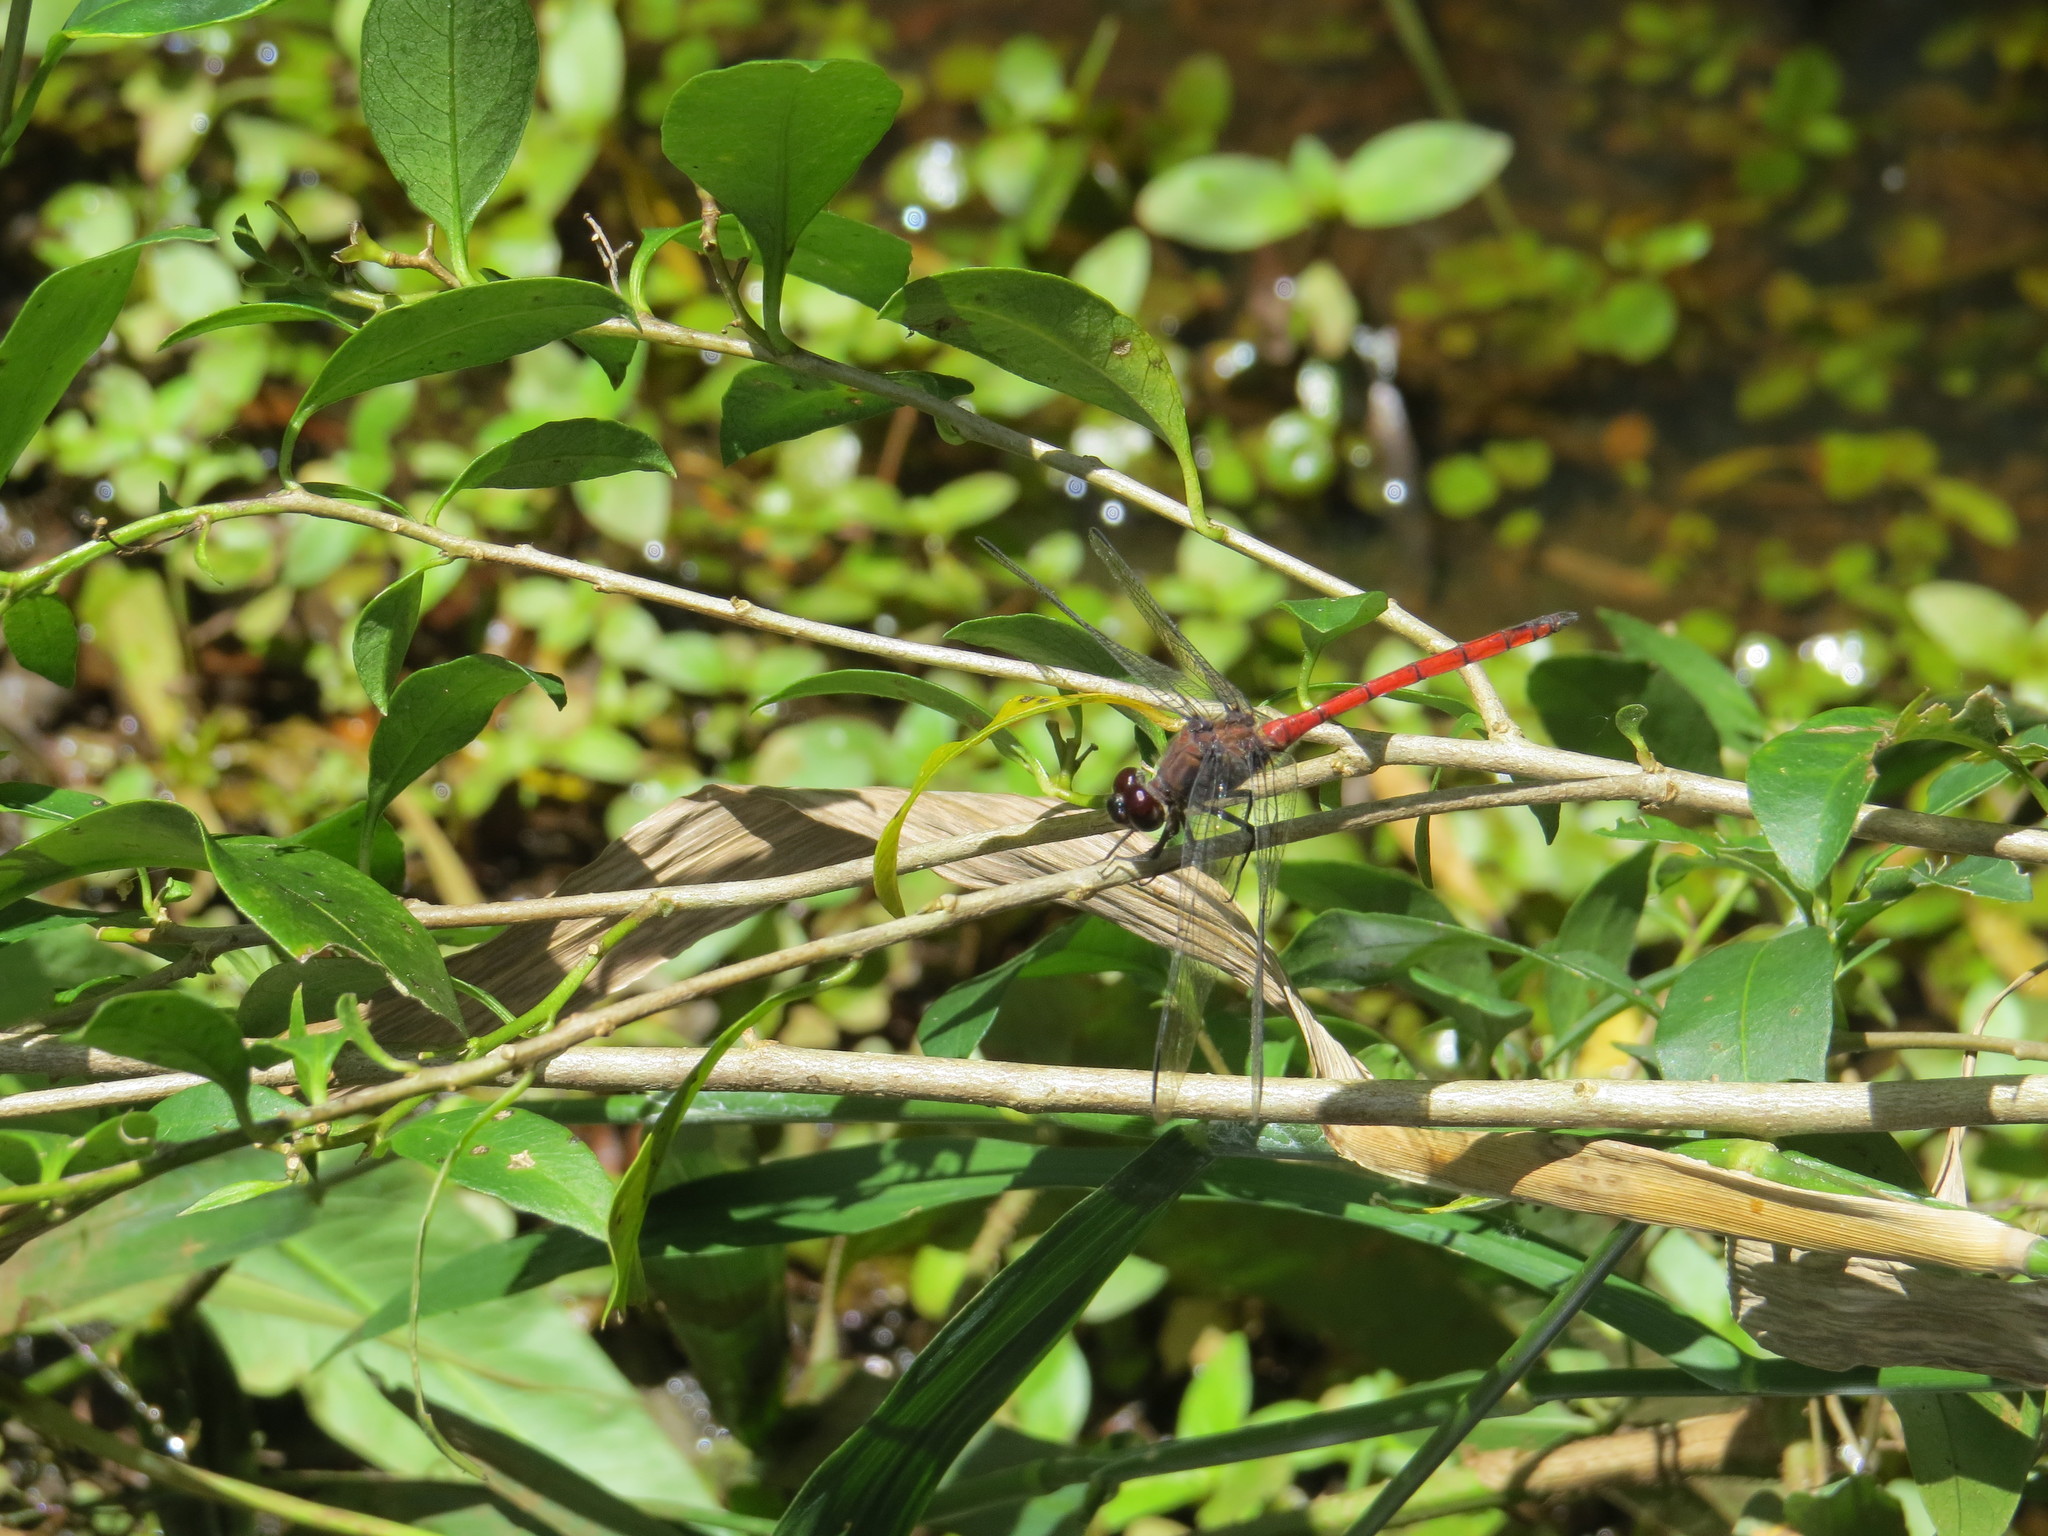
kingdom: Animalia
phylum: Arthropoda
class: Insecta
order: Odonata
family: Libellulidae
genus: Orthemis
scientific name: Orthemis ambinigra
